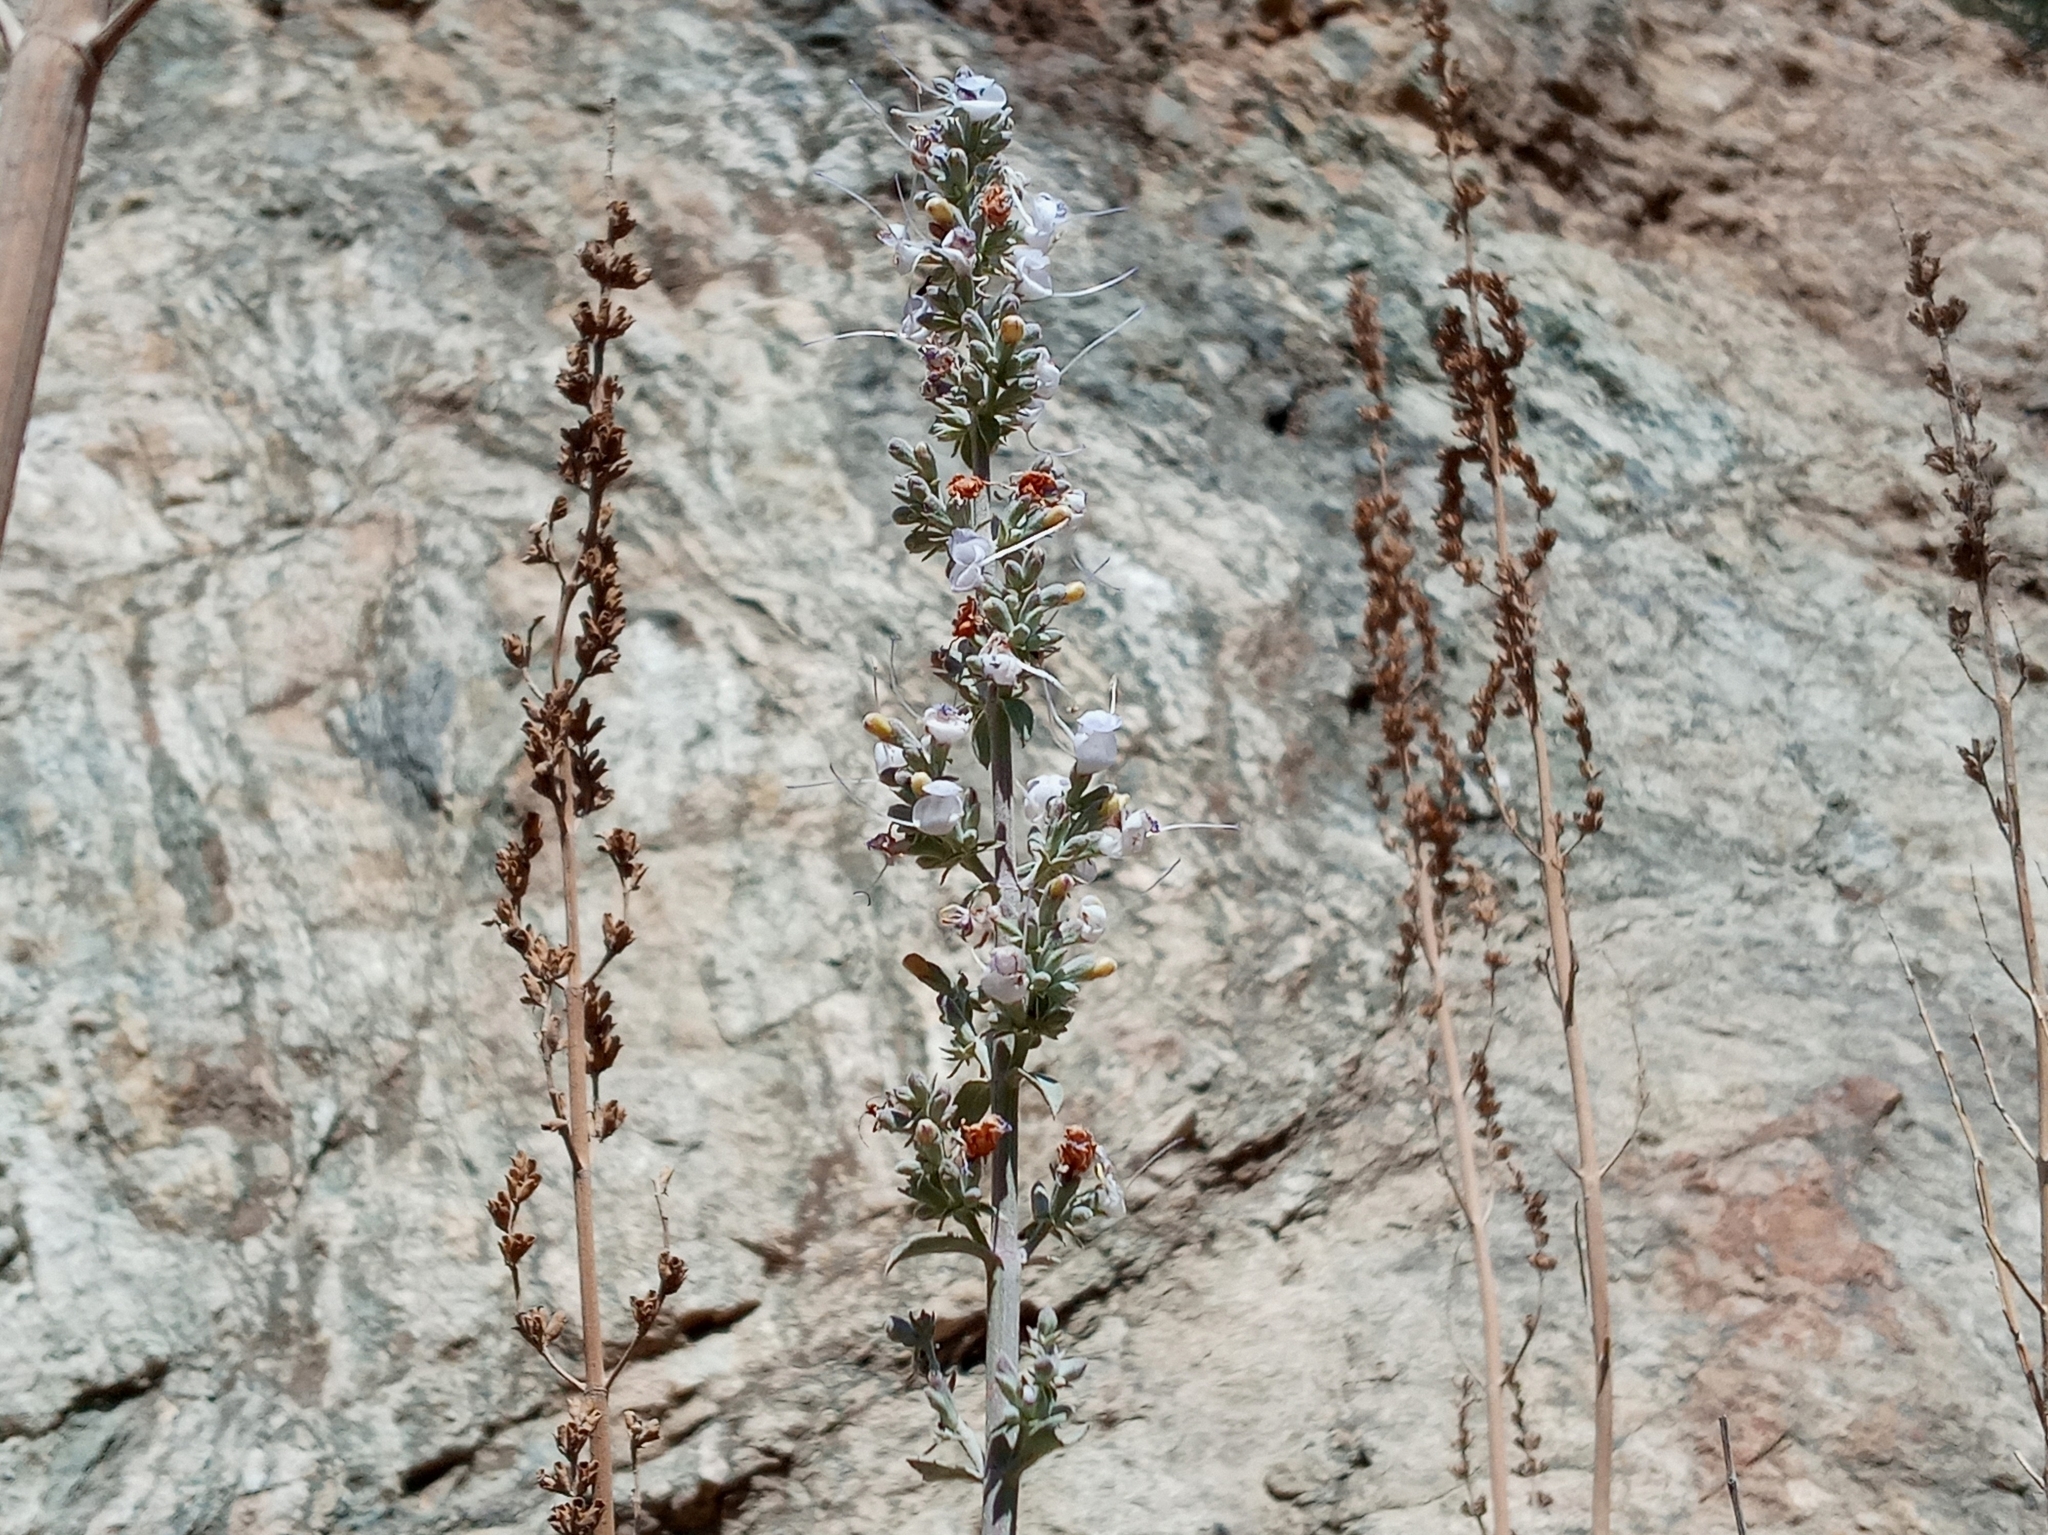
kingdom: Plantae
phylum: Tracheophyta
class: Magnoliopsida
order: Lamiales
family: Lamiaceae
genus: Salvia
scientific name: Salvia apiana
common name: White sage
